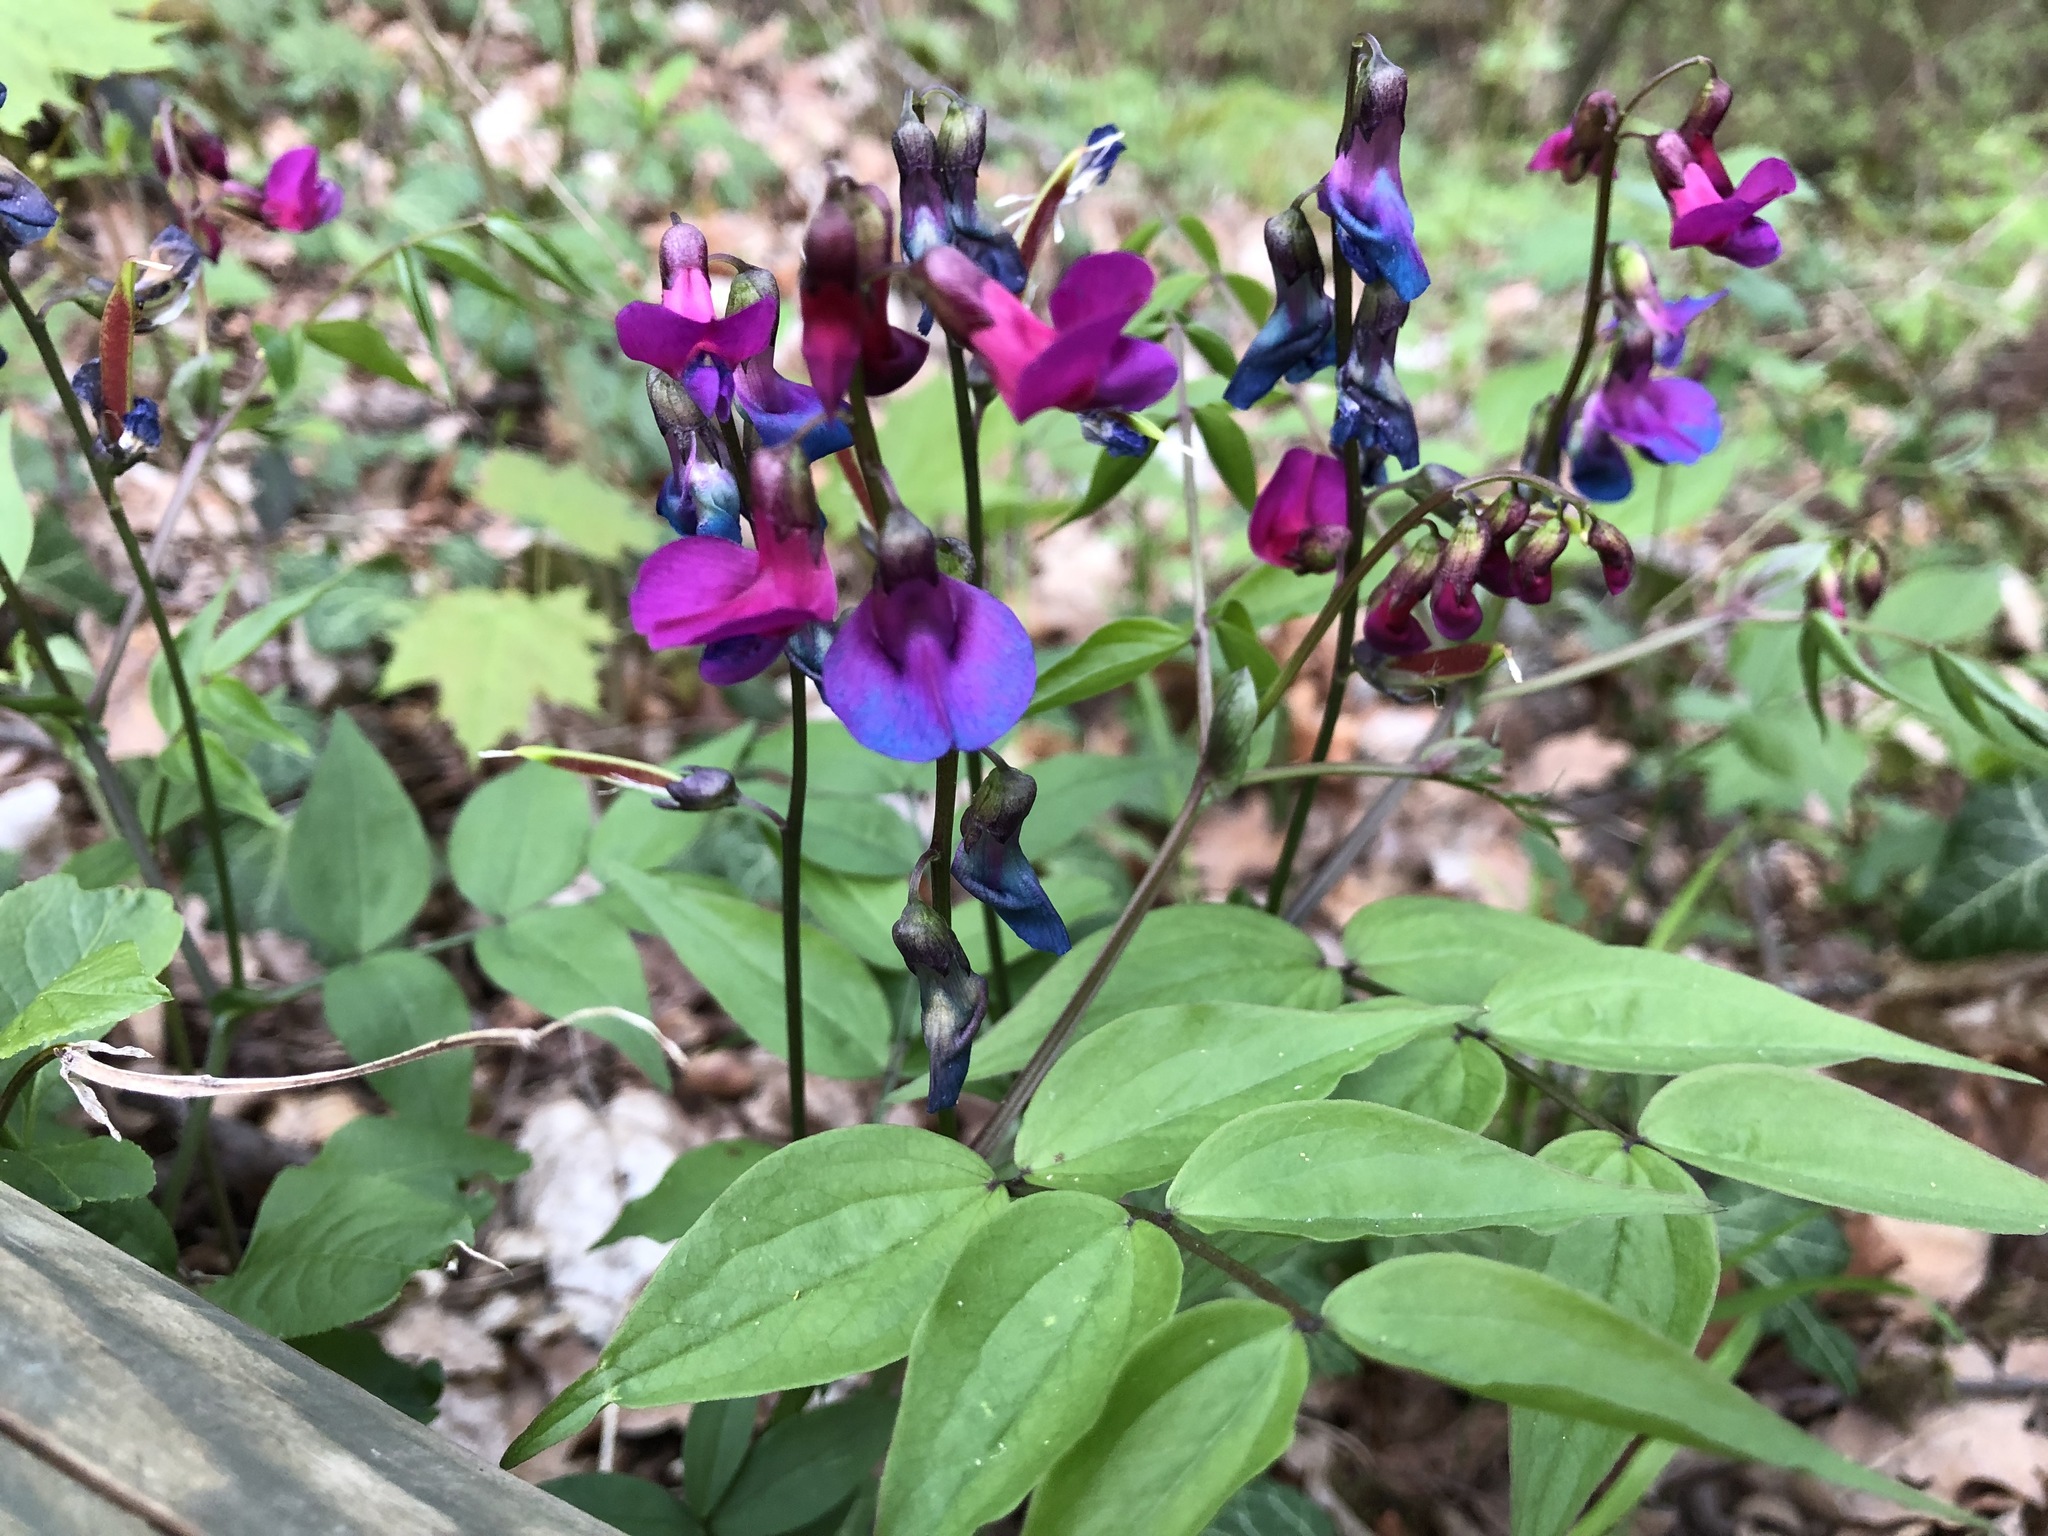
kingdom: Plantae
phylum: Tracheophyta
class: Magnoliopsida
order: Fabales
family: Fabaceae
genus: Lathyrus
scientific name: Lathyrus vernus
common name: Spring pea
